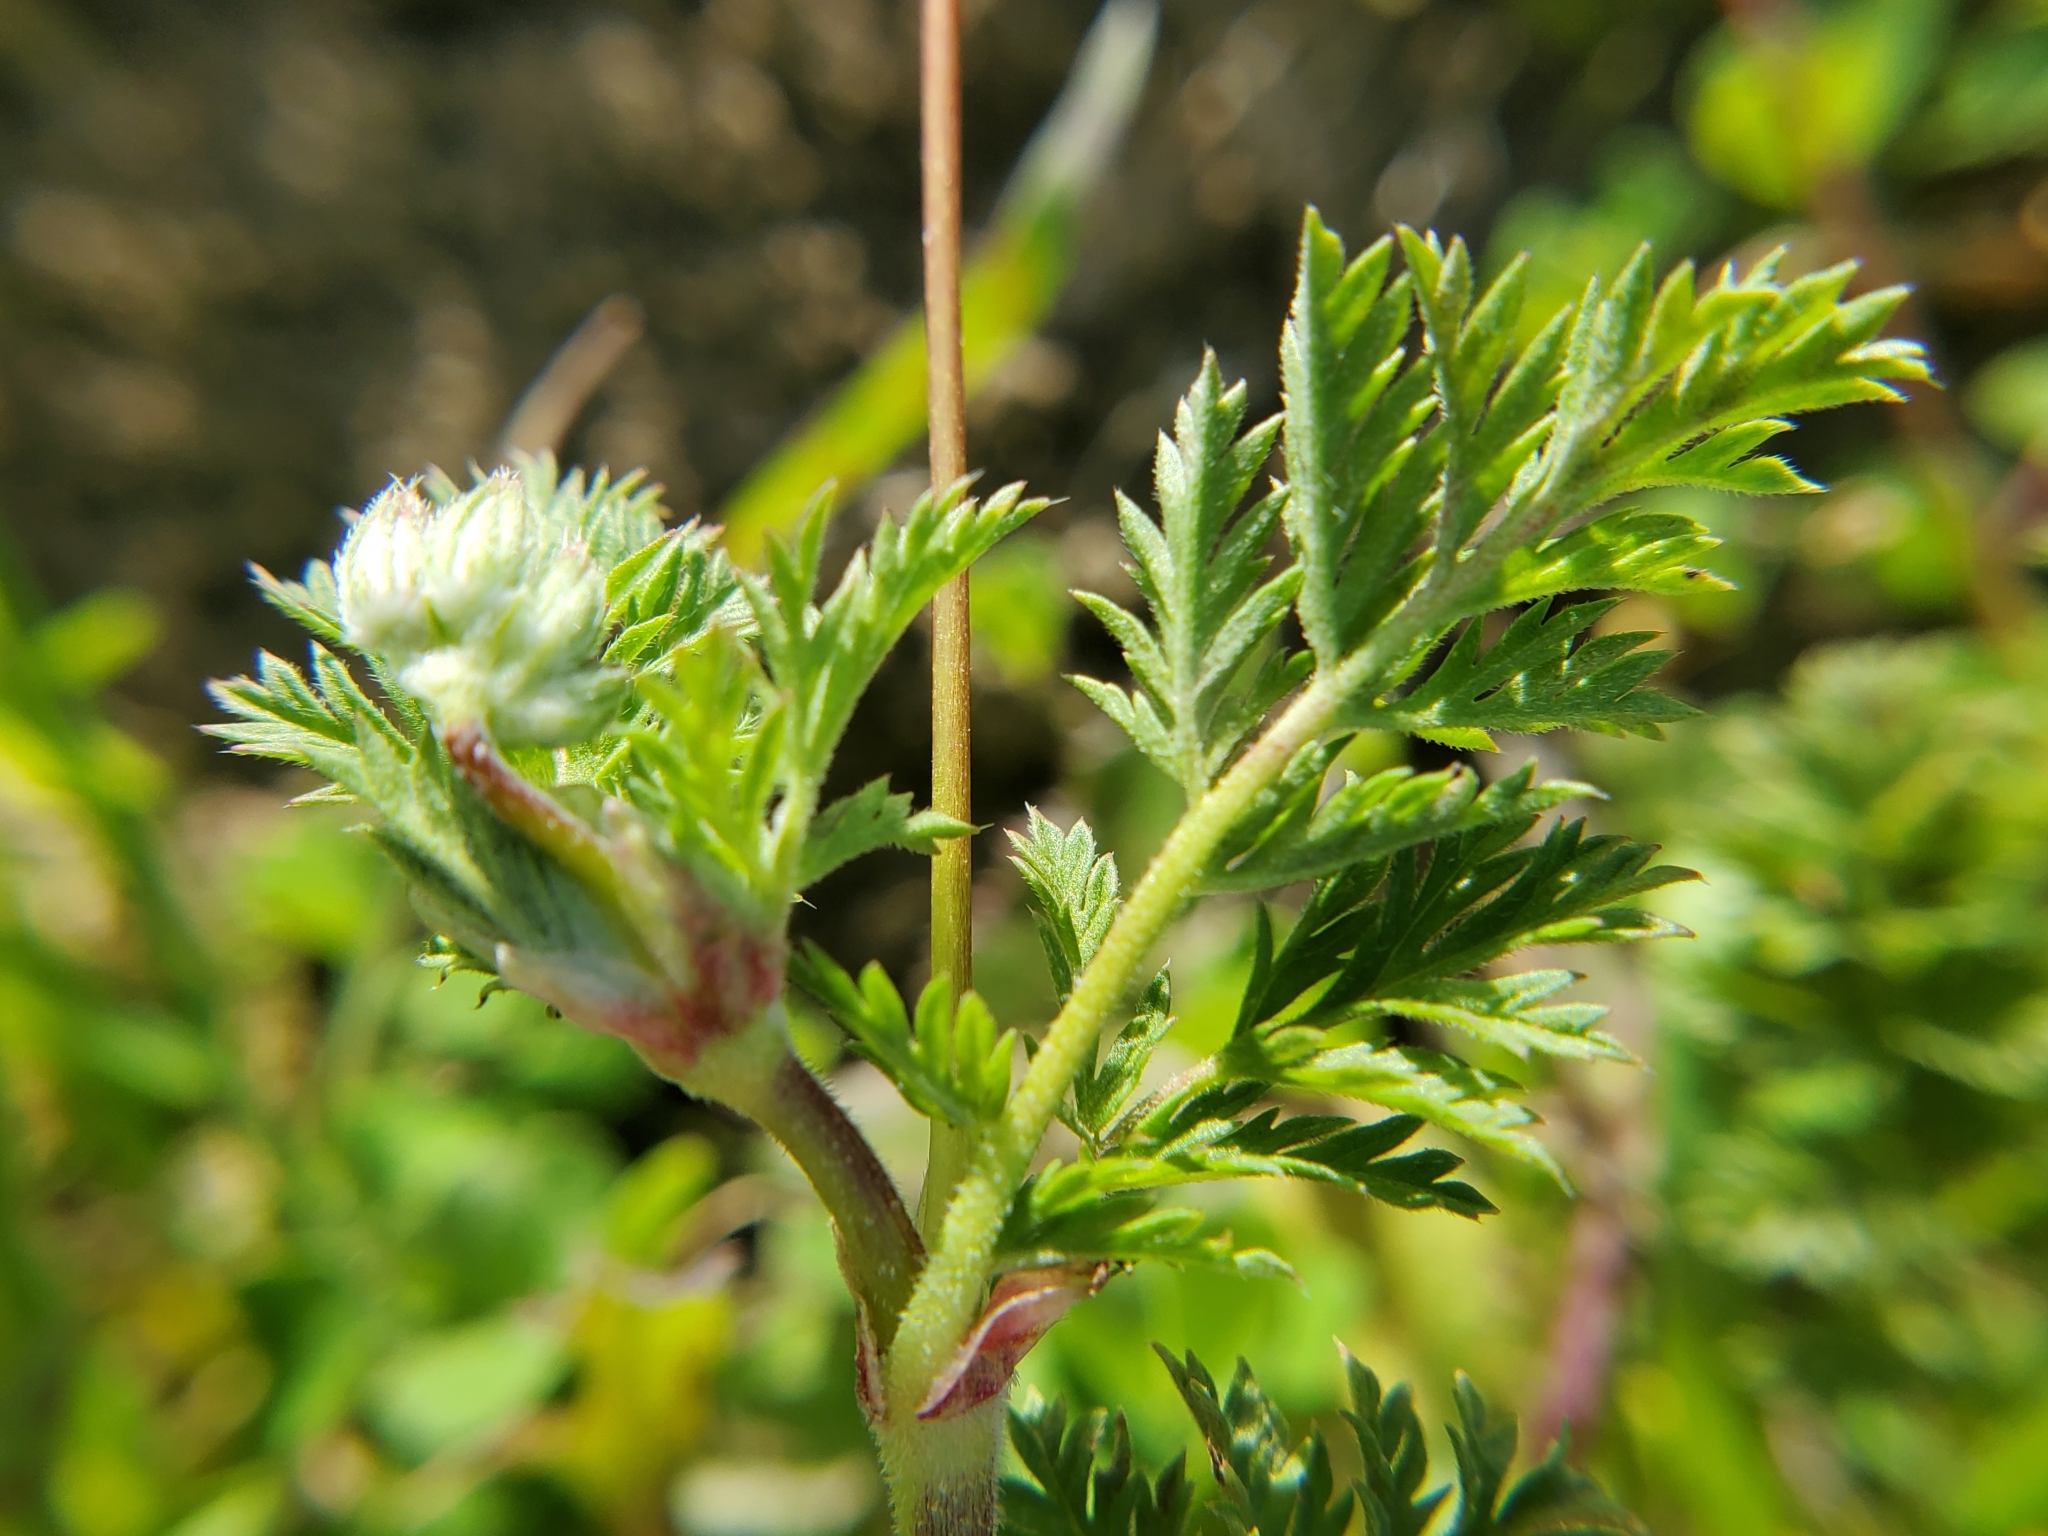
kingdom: Plantae
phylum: Tracheophyta
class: Magnoliopsida
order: Geraniales
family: Geraniaceae
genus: Erodium
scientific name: Erodium cicutarium
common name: Common stork's-bill
